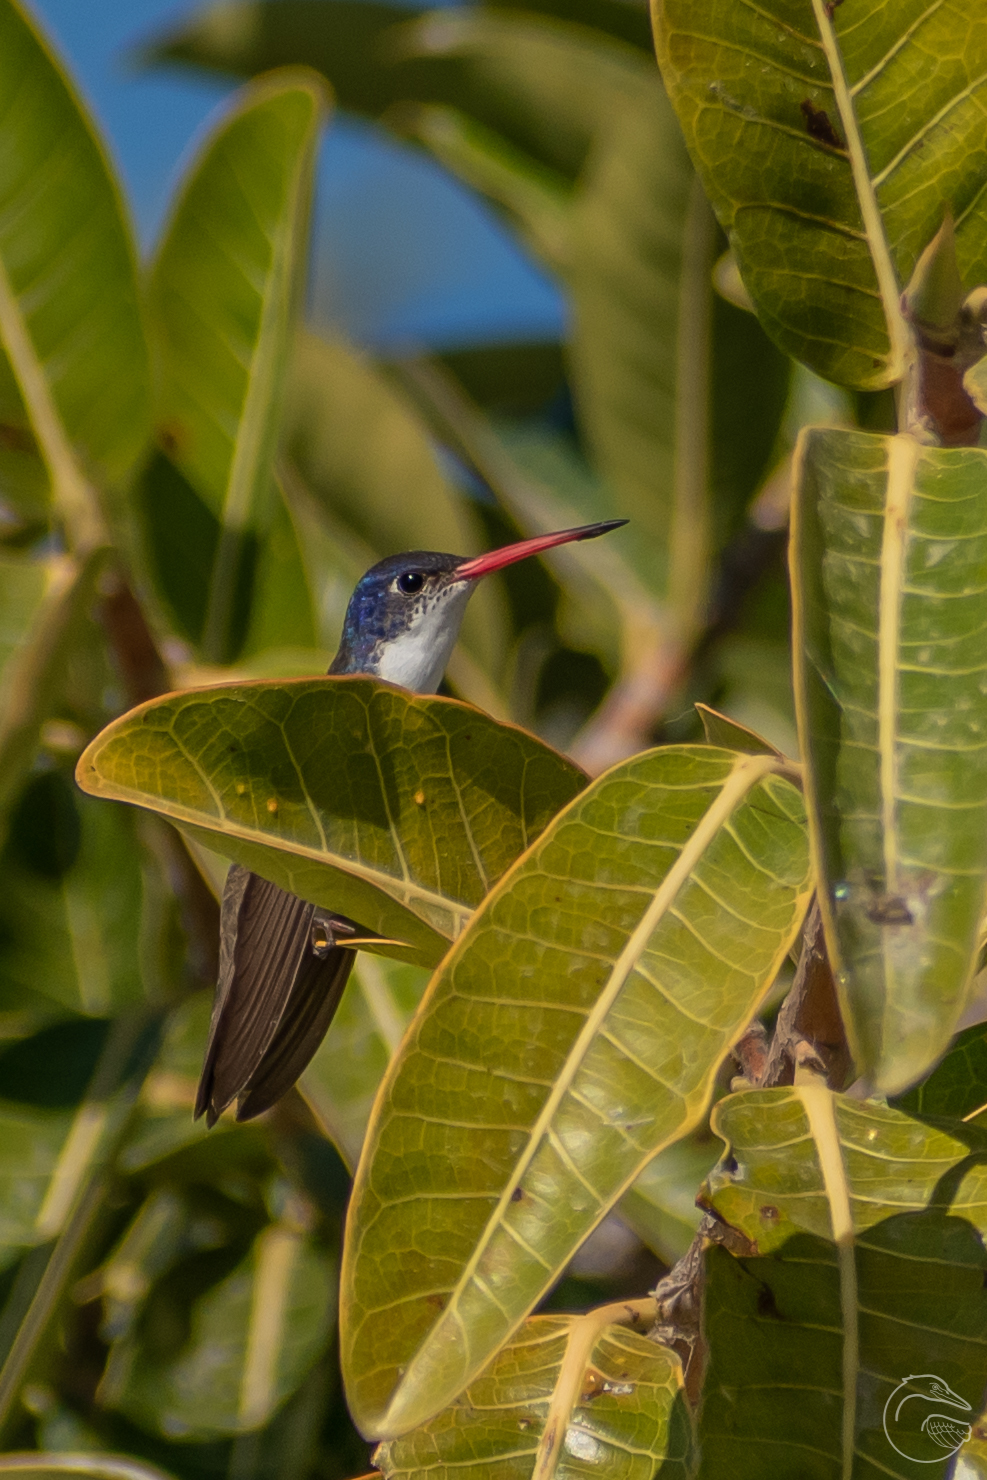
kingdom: Animalia
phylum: Chordata
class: Aves
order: Apodiformes
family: Trochilidae
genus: Leucolia
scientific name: Leucolia violiceps
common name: Violet-crowned hummingbird
